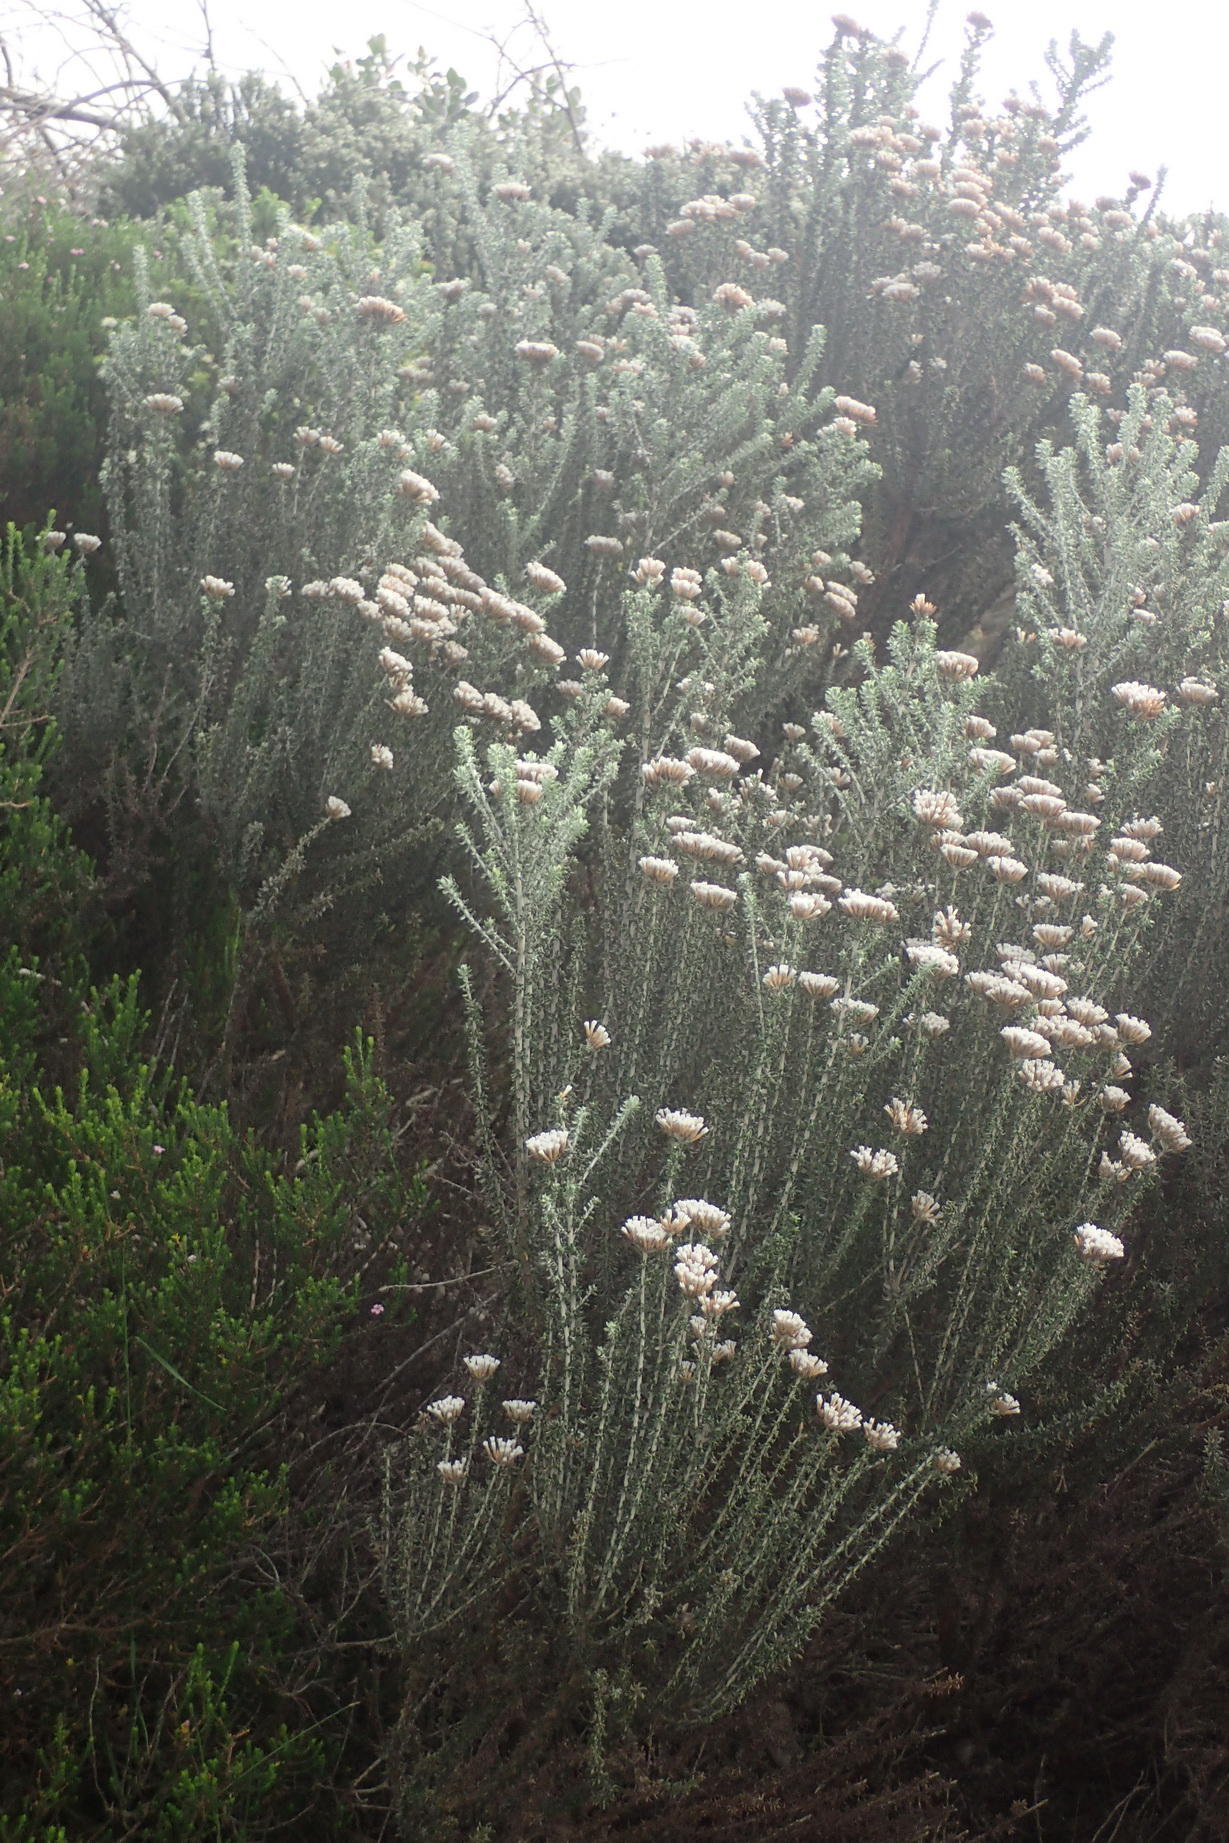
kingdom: Plantae
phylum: Tracheophyta
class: Magnoliopsida
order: Asterales
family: Asteraceae
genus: Metalasia
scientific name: Metalasia muricata
